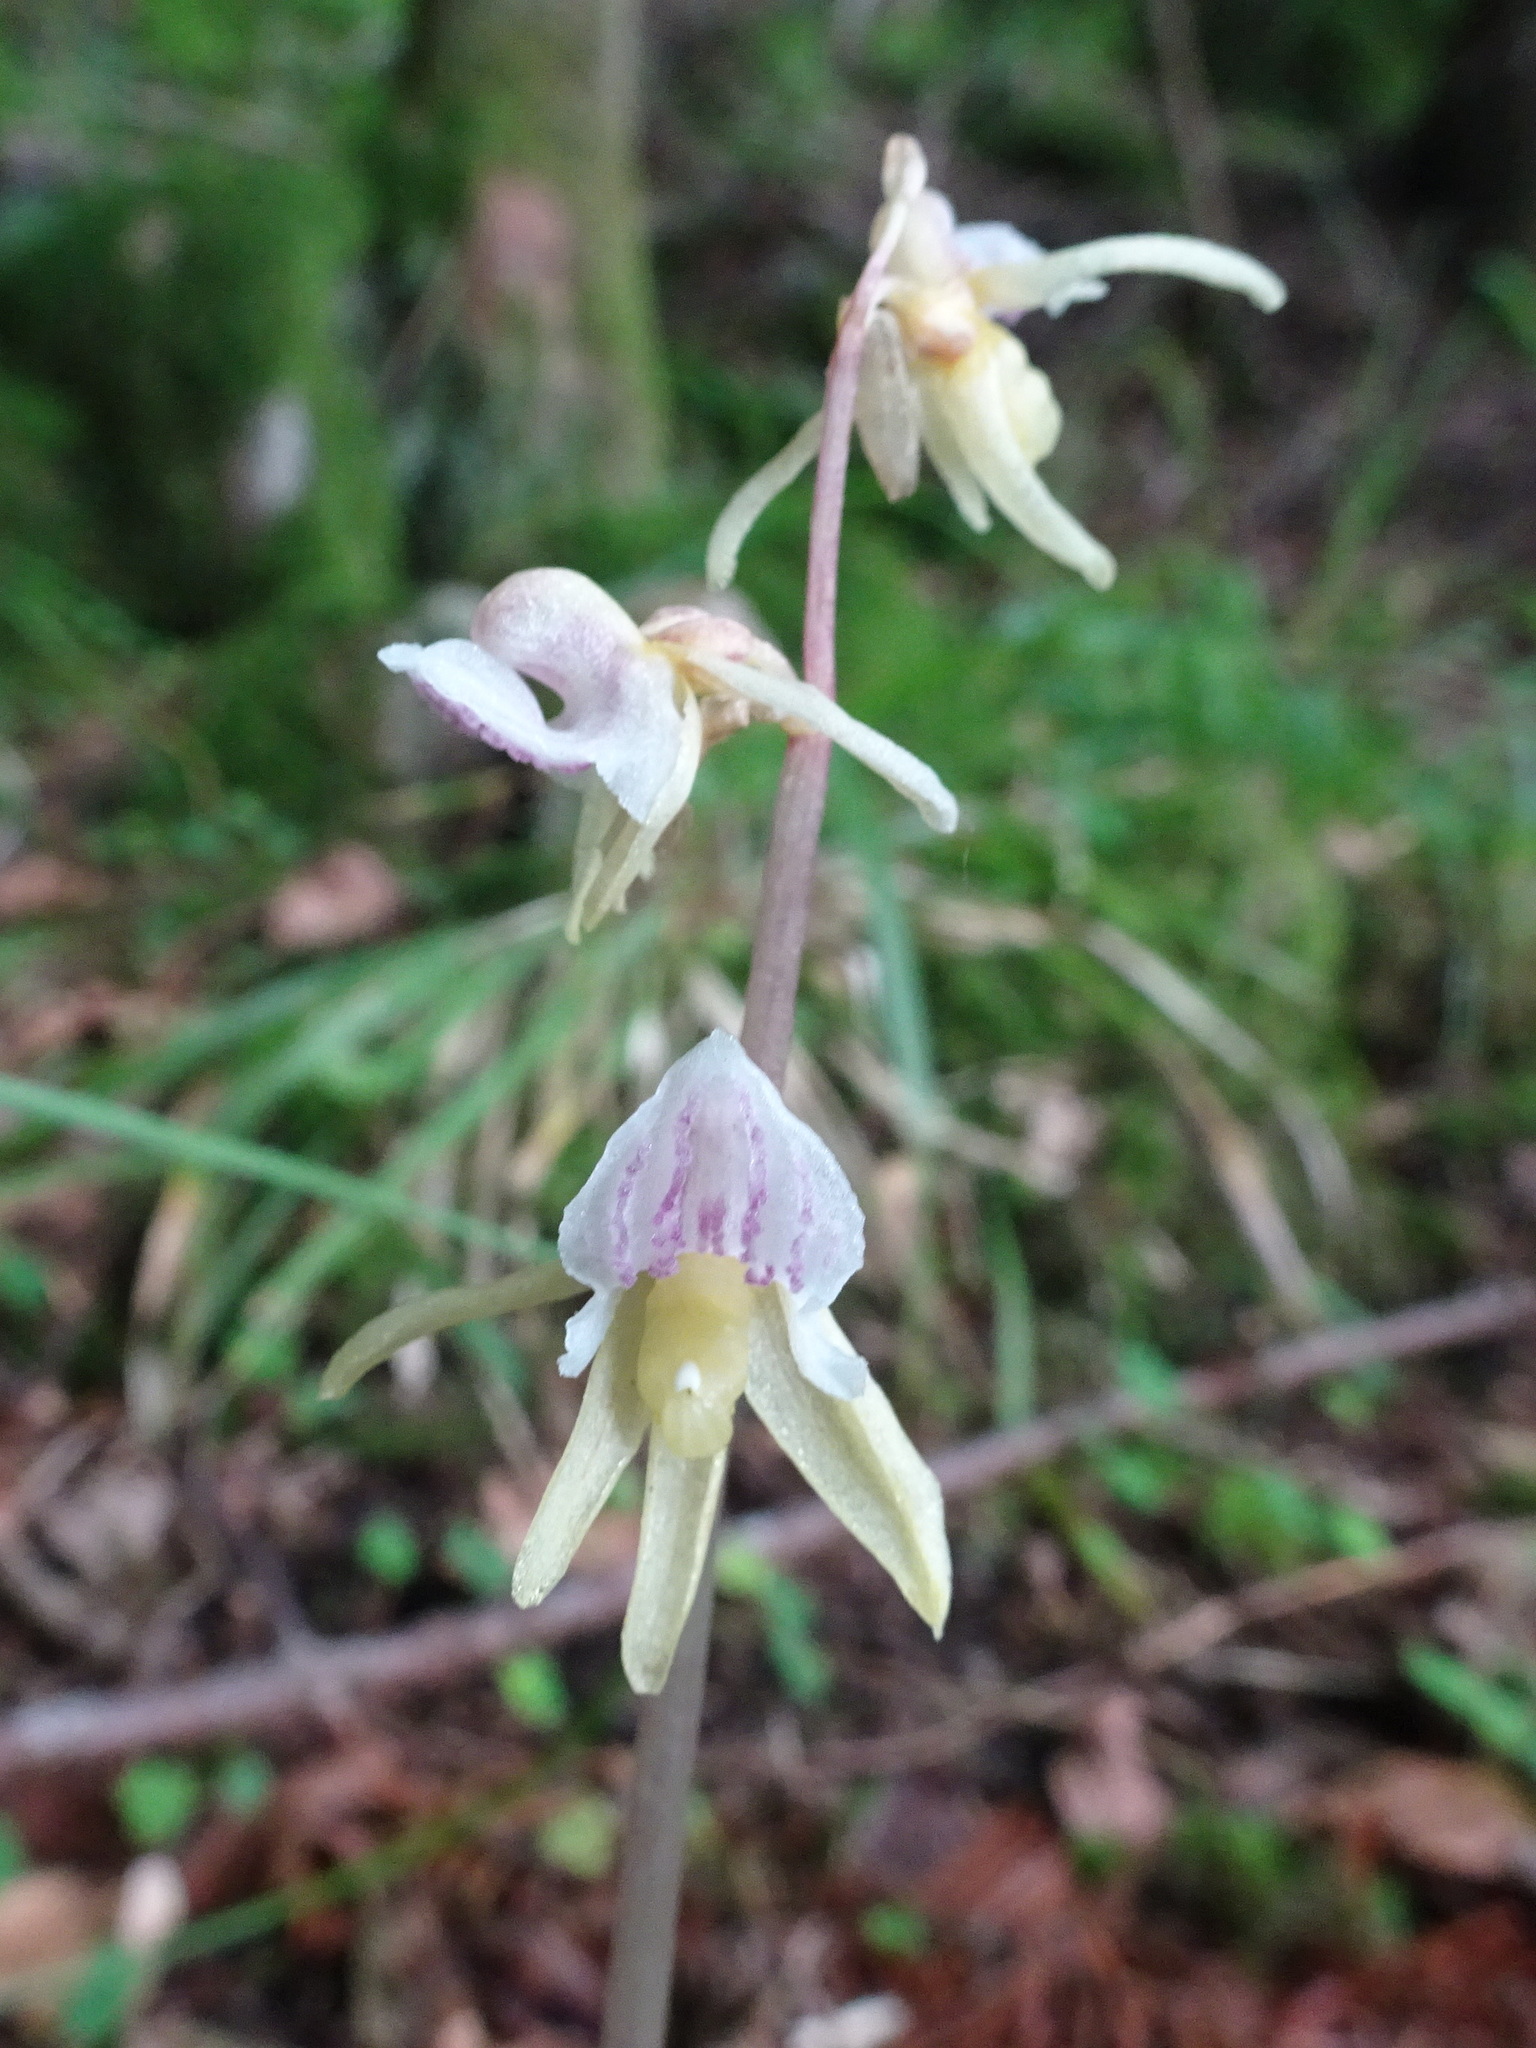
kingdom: Plantae
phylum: Tracheophyta
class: Liliopsida
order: Asparagales
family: Orchidaceae
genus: Epipogium
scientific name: Epipogium aphyllum
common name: Ghost orchid
